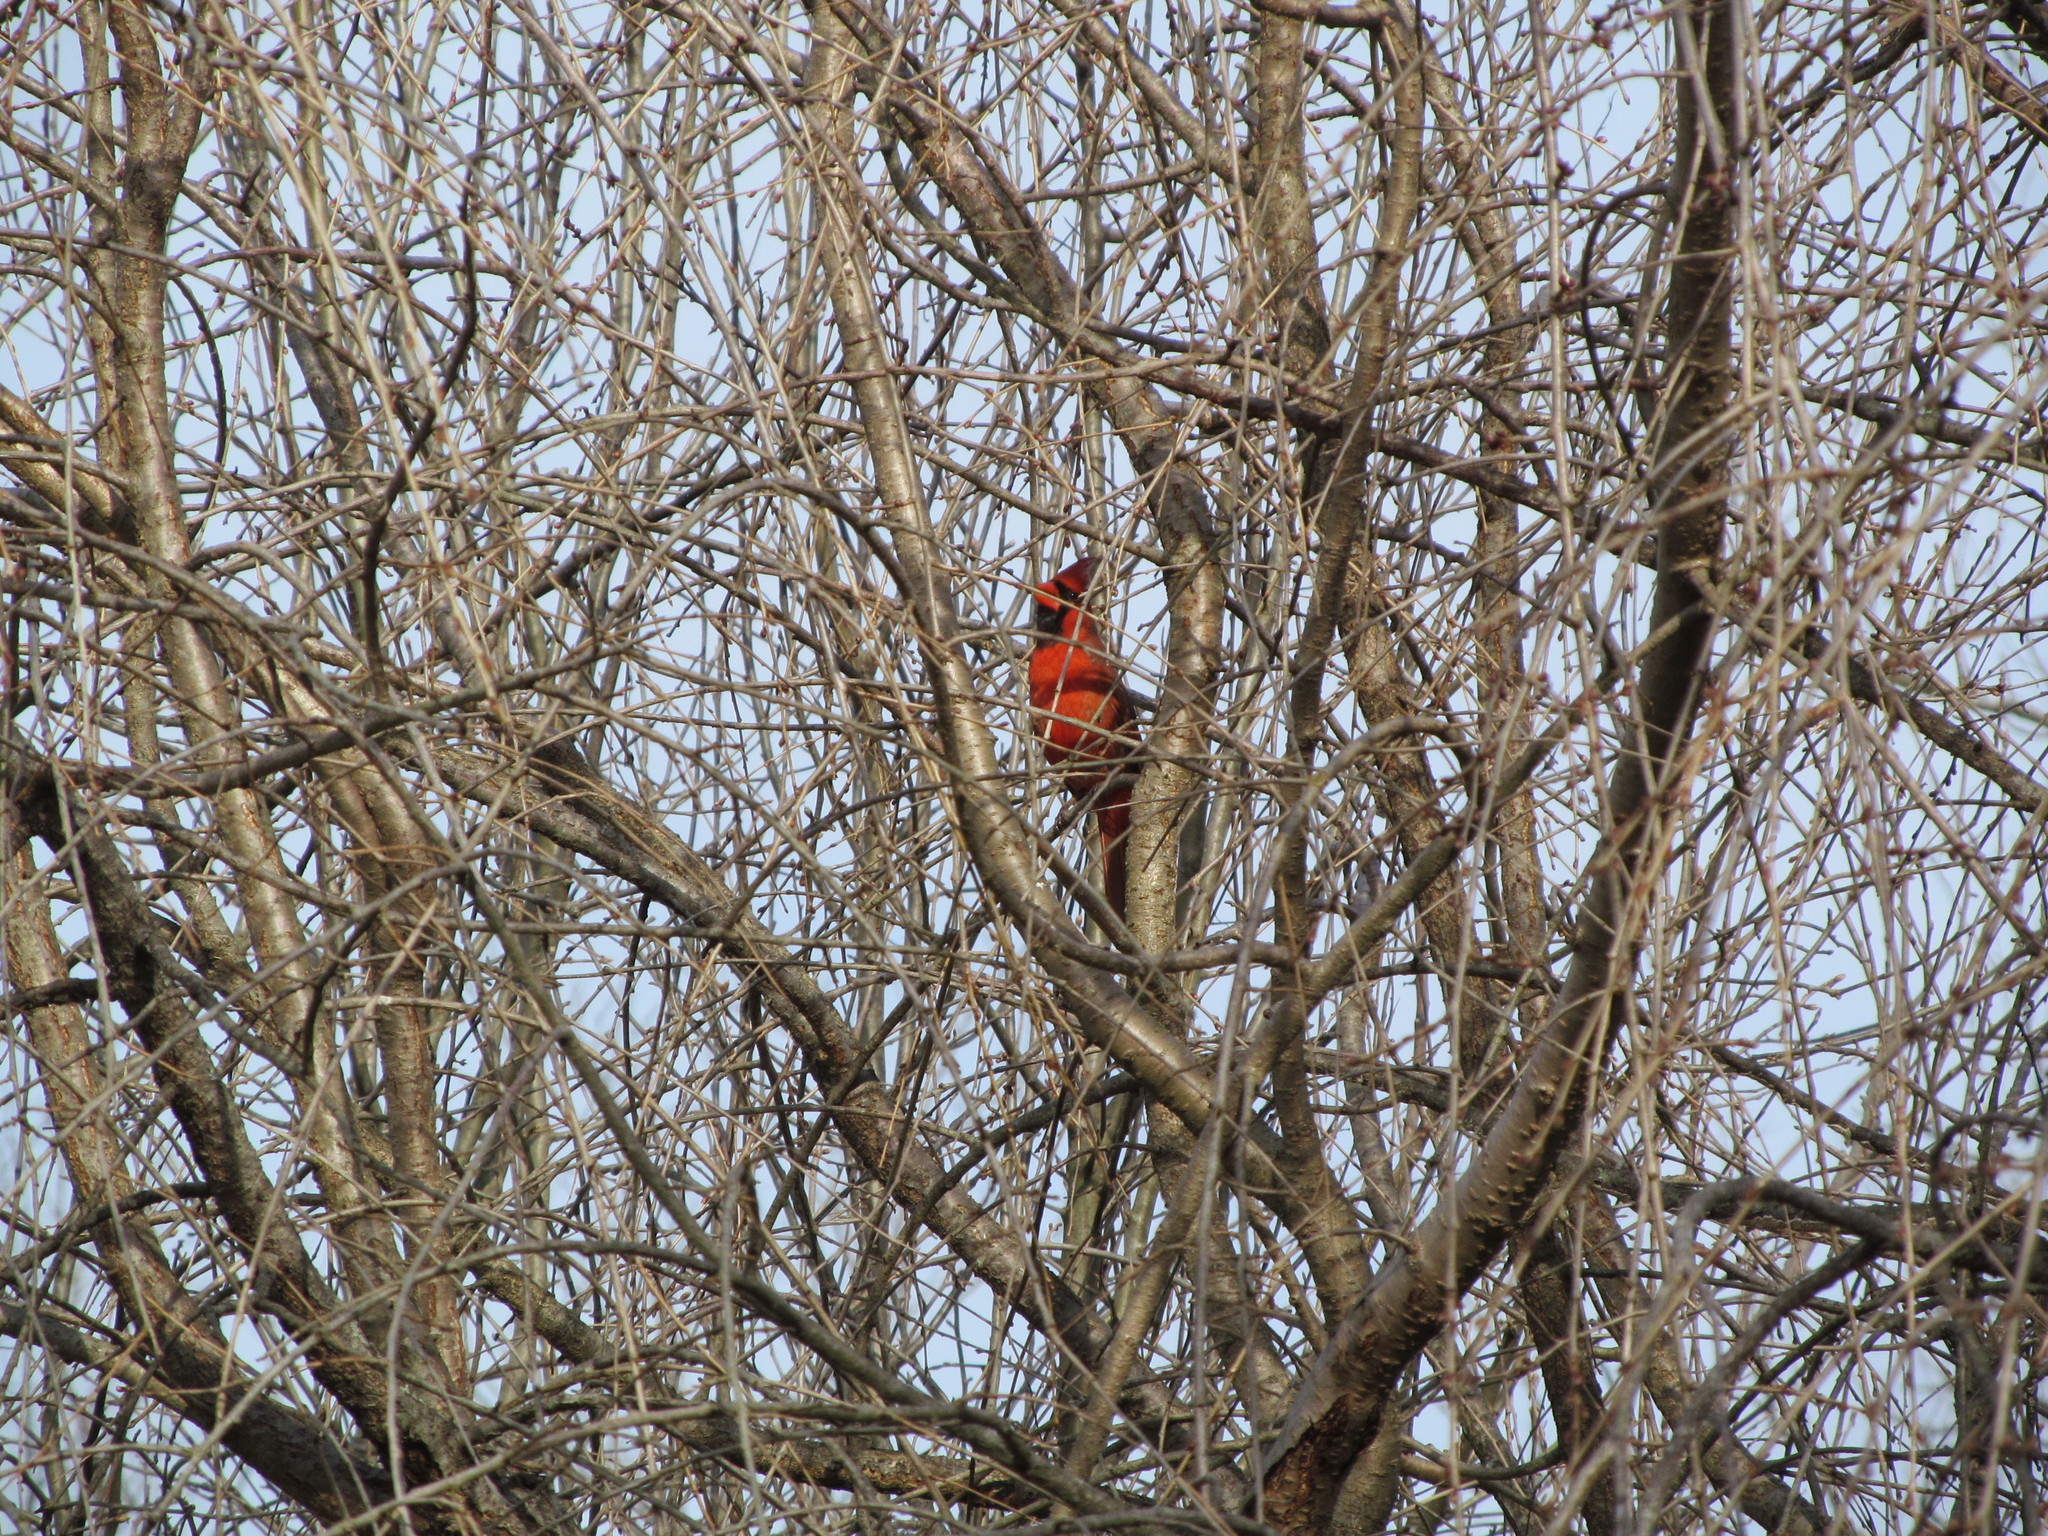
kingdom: Animalia
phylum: Chordata
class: Aves
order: Passeriformes
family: Cardinalidae
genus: Cardinalis
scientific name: Cardinalis cardinalis
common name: Northern cardinal
